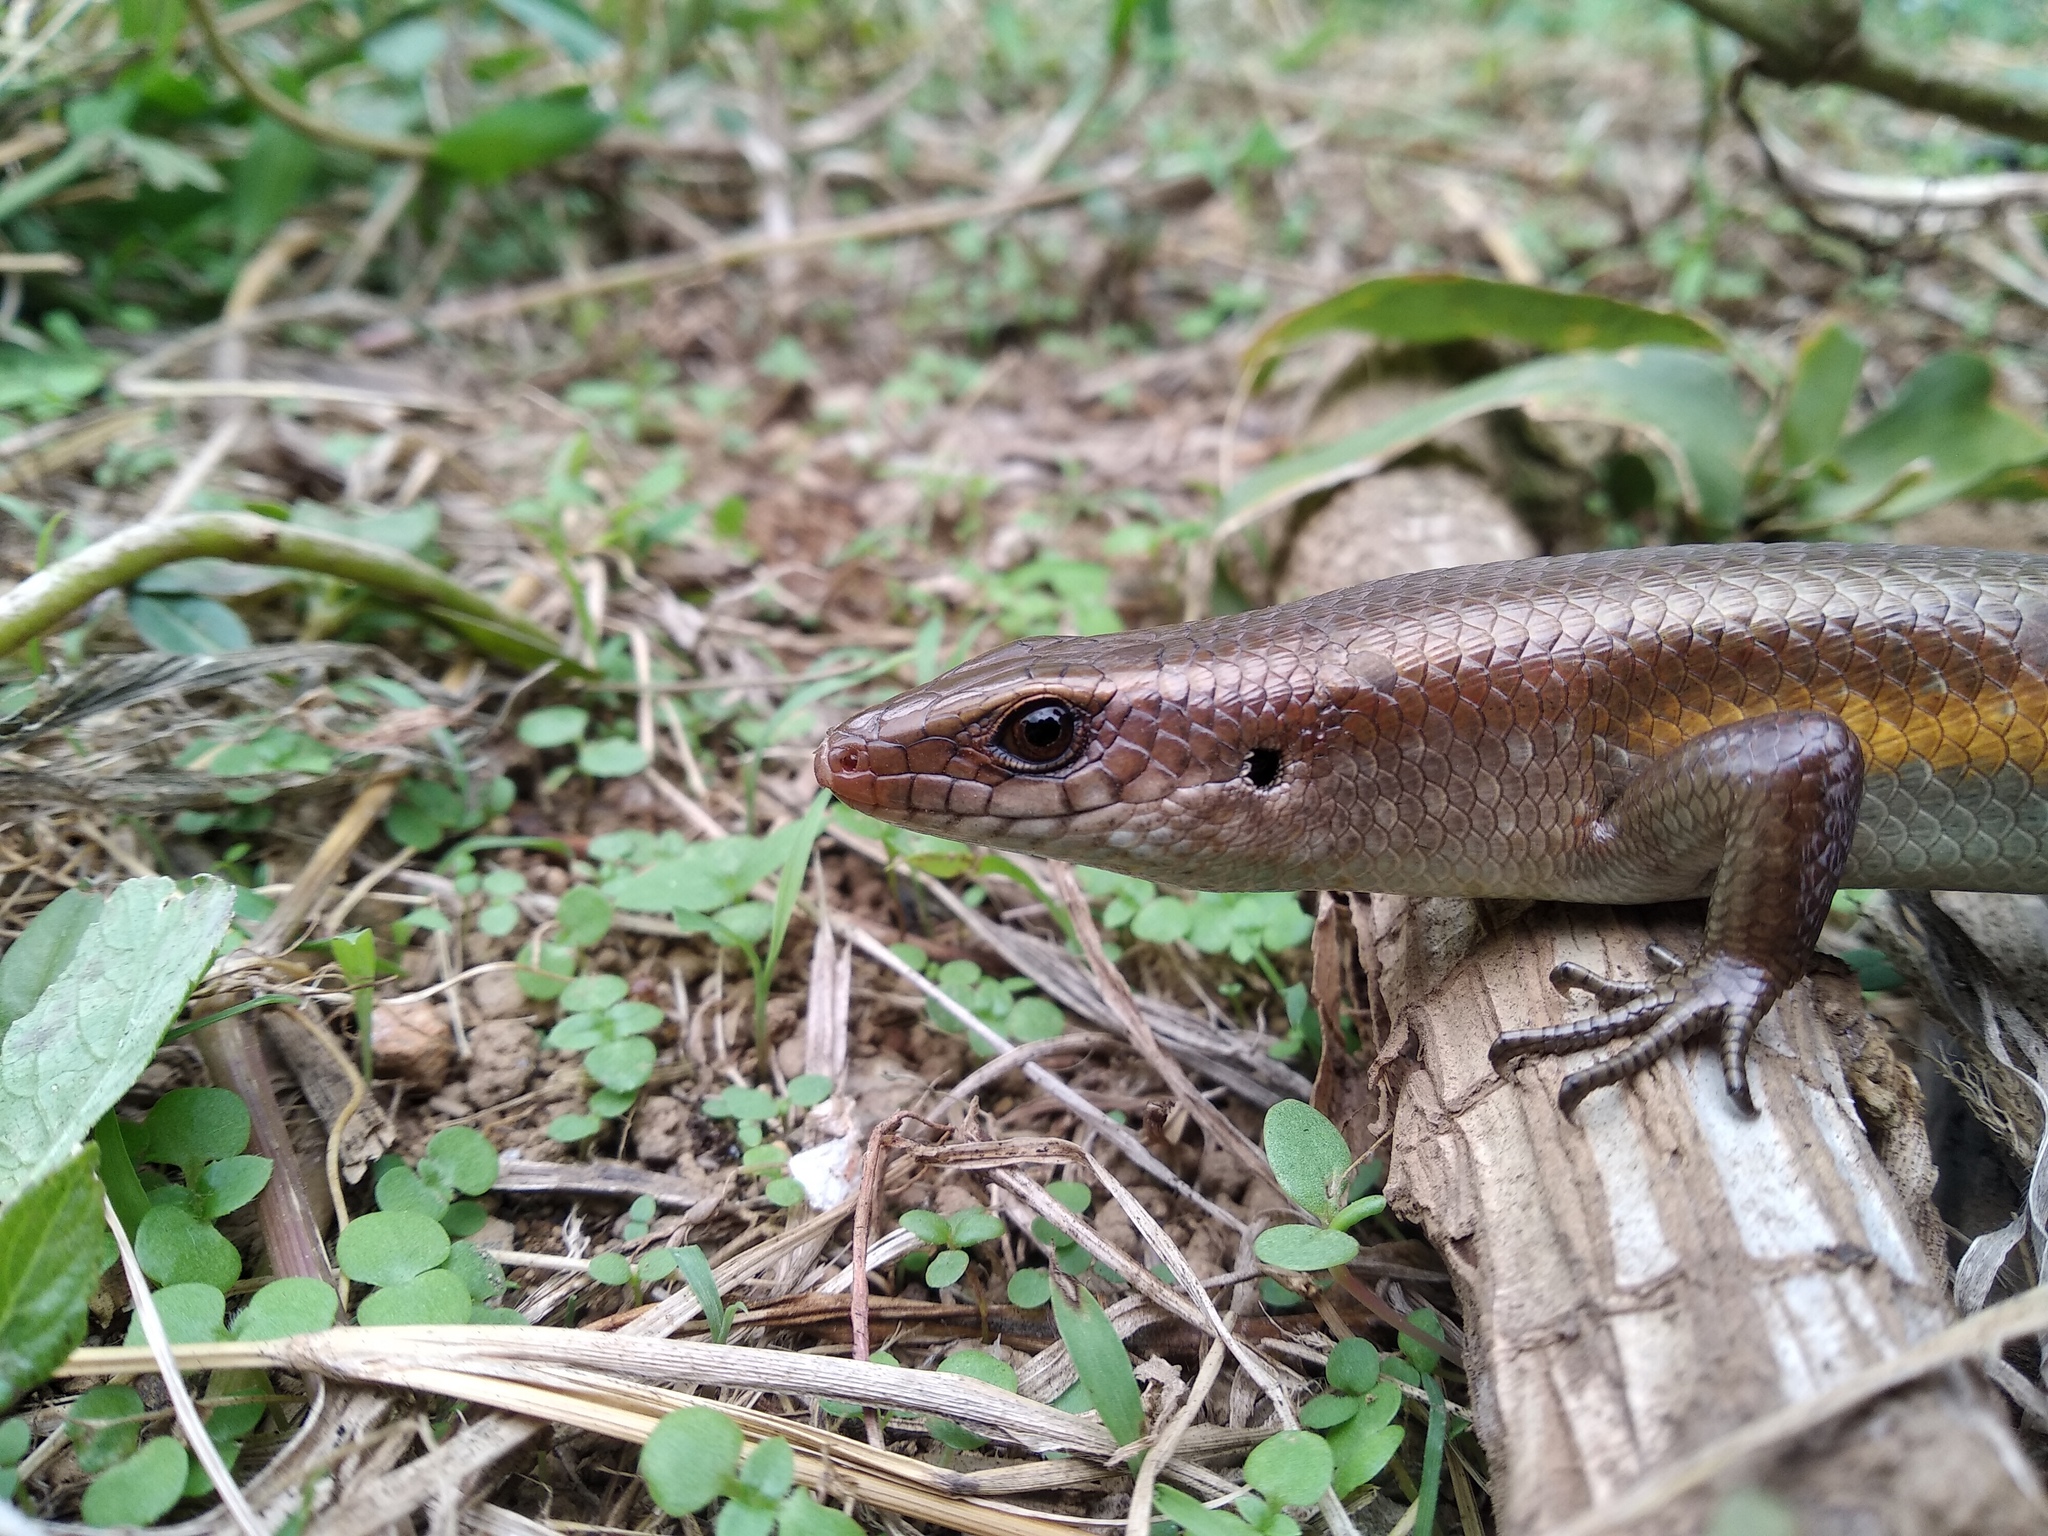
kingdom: Animalia
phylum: Chordata
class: Squamata
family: Scincidae
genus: Eutropis
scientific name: Eutropis multifasciata
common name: Common mabuya
